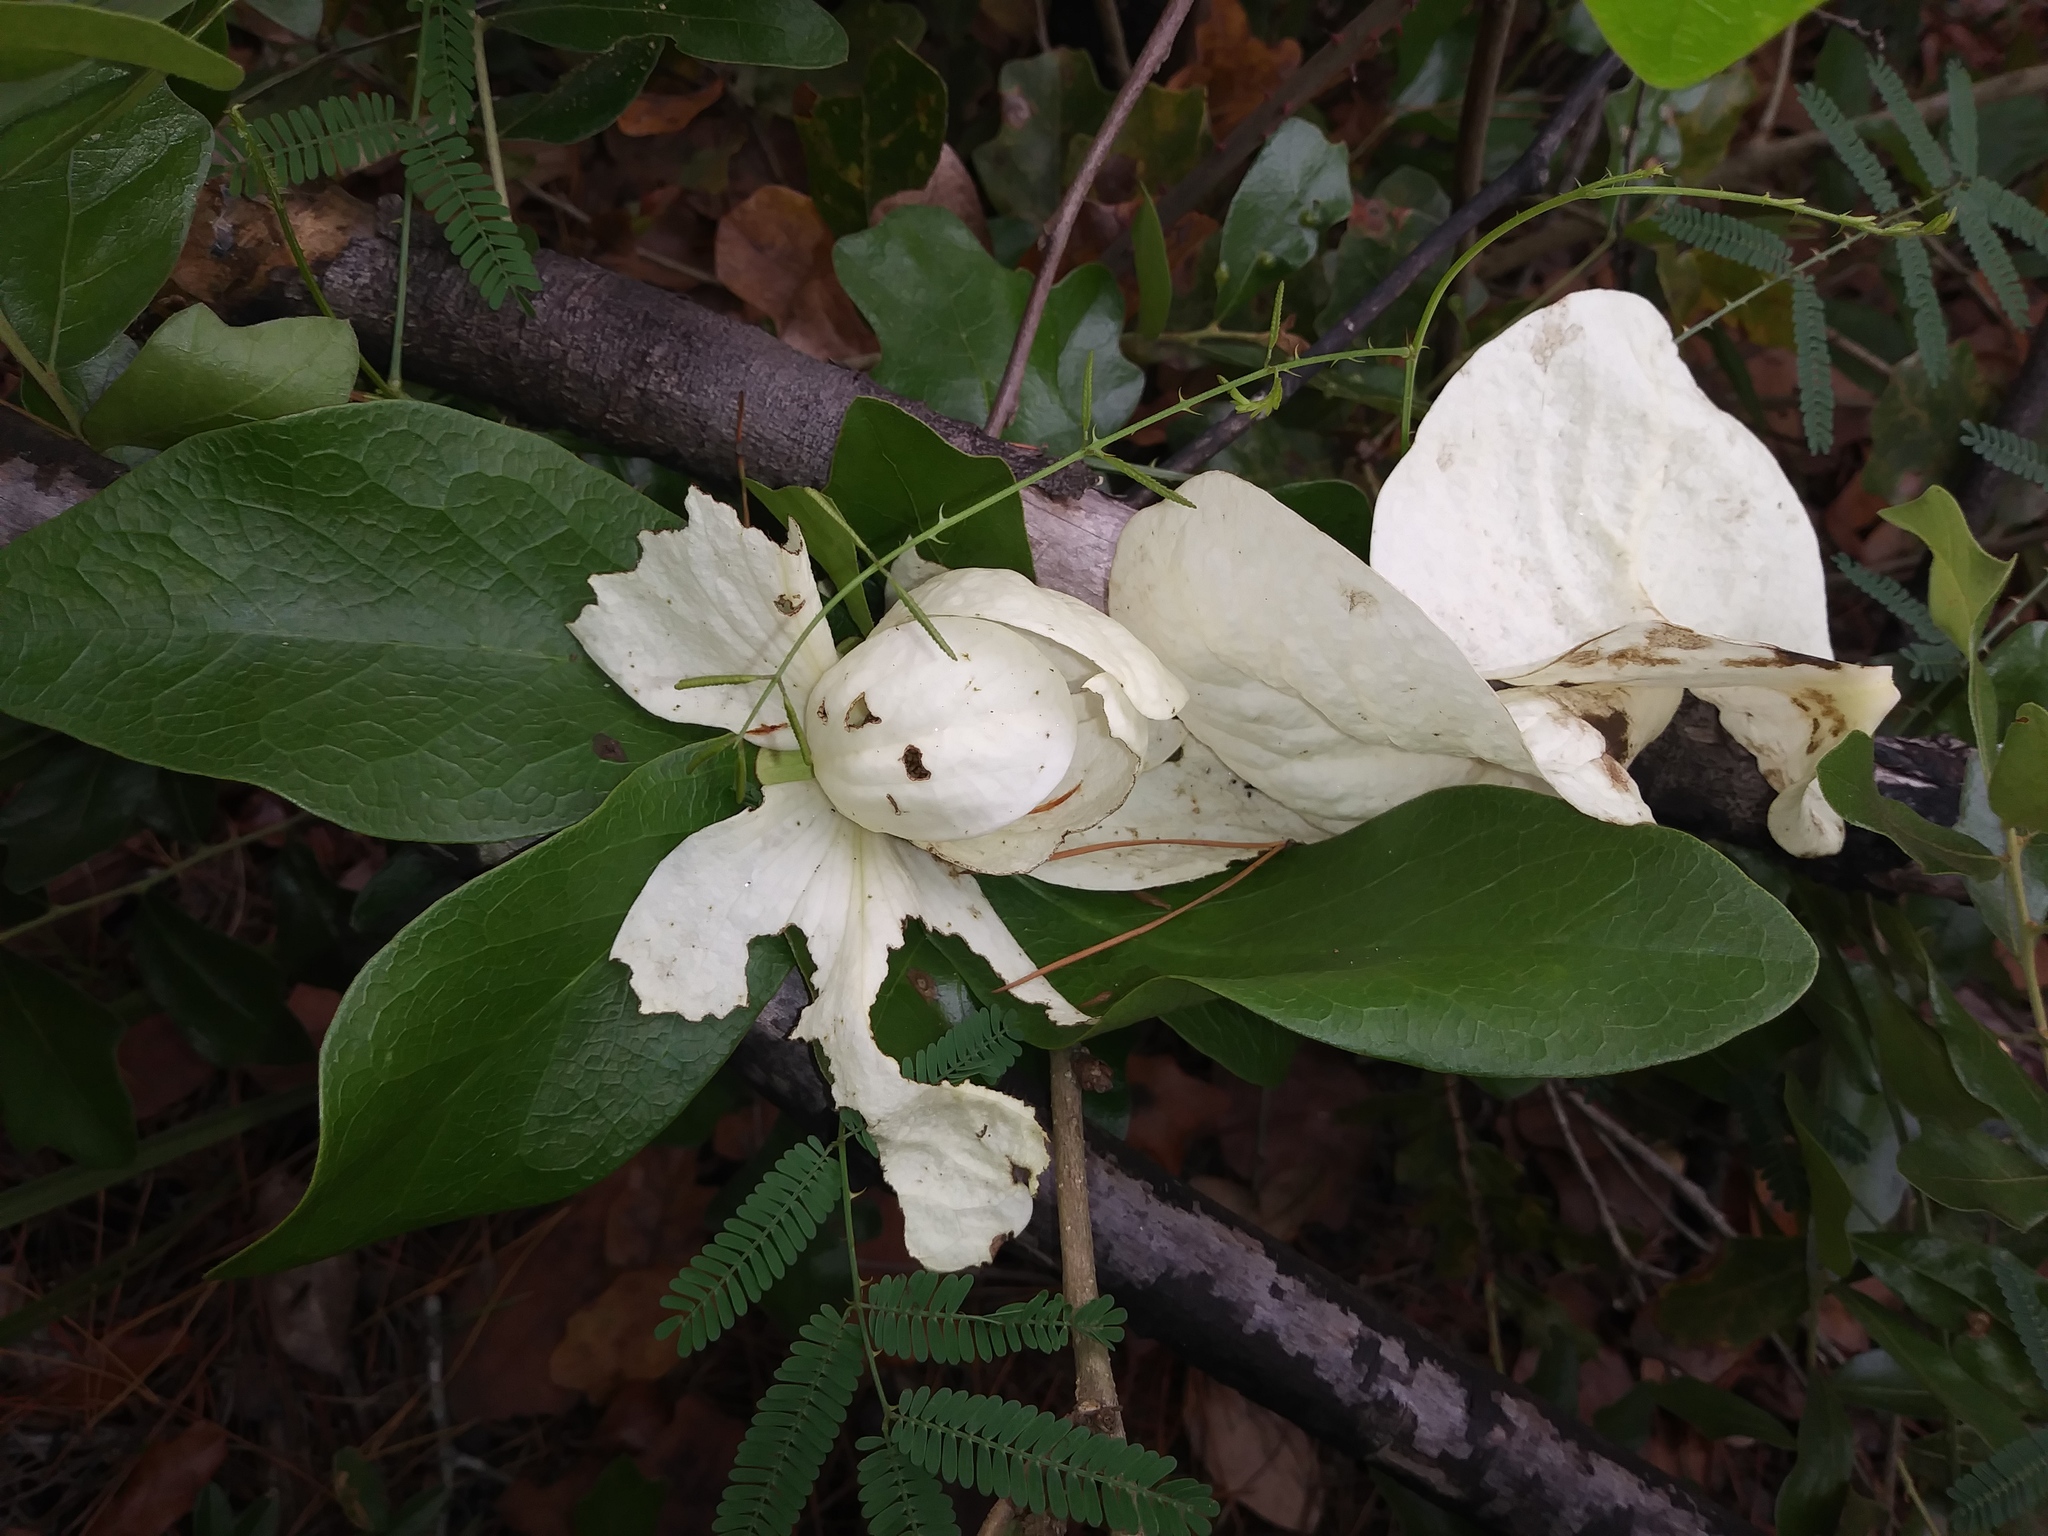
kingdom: Plantae
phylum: Tracheophyta
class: Magnoliopsida
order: Magnoliales
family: Annonaceae
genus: Asimina
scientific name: Asimina obovata
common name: Flag pawpaw
